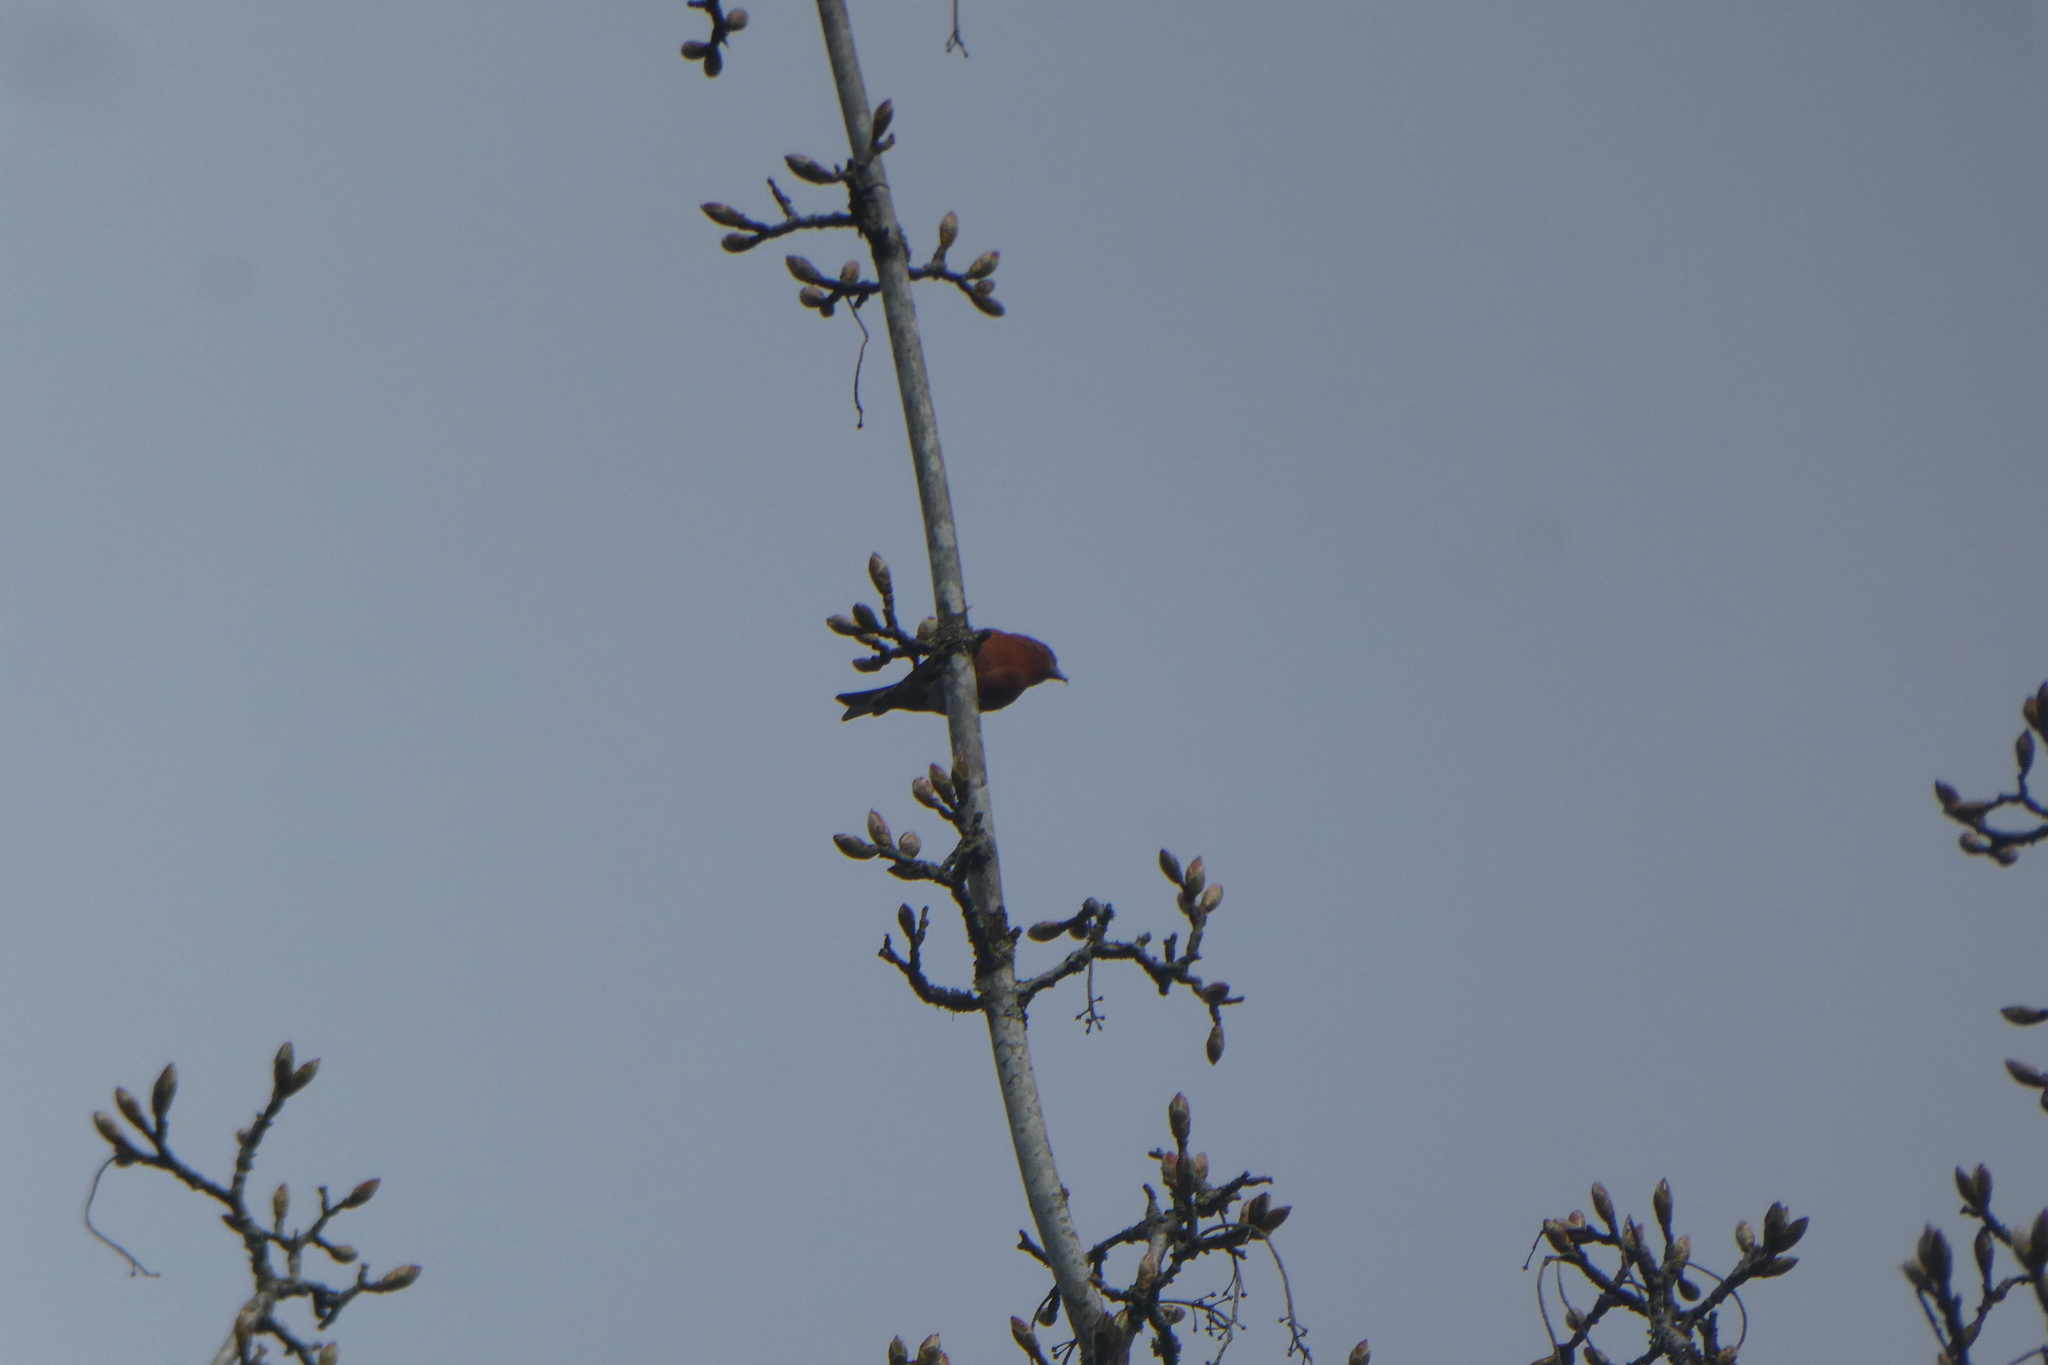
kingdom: Animalia
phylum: Chordata
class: Aves
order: Passeriformes
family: Fringillidae
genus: Loxia
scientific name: Loxia curvirostra
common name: Red crossbill
